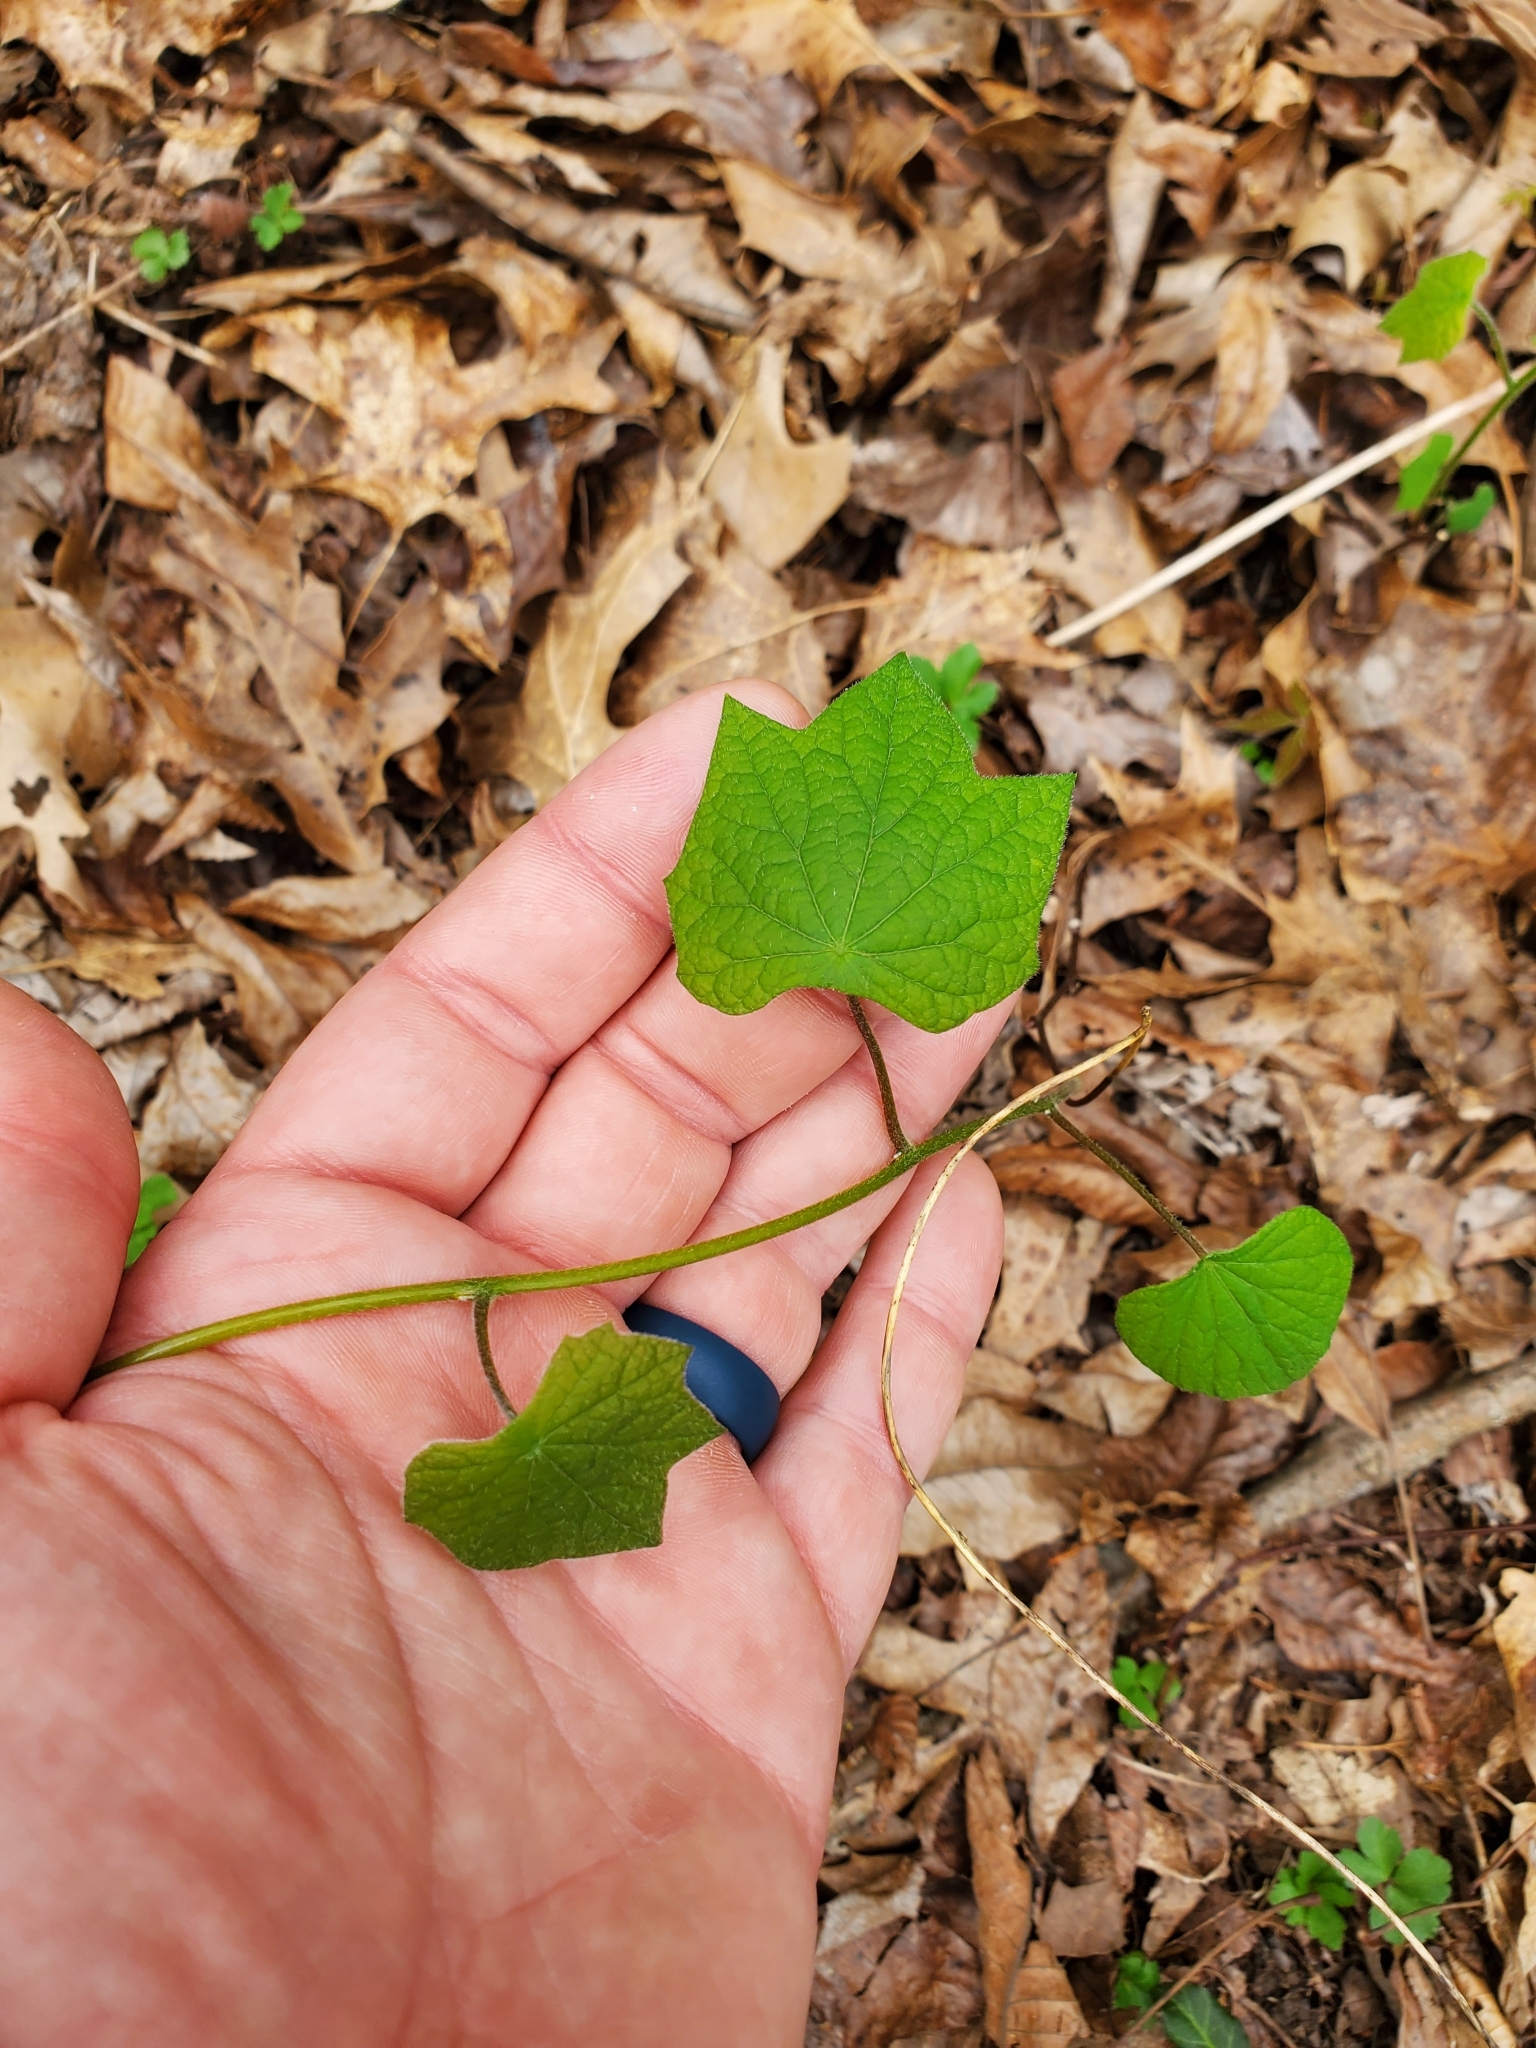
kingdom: Plantae
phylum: Tracheophyta
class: Magnoliopsida
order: Ranunculales
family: Menispermaceae
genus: Menispermum
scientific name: Menispermum canadense
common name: Moonseed
